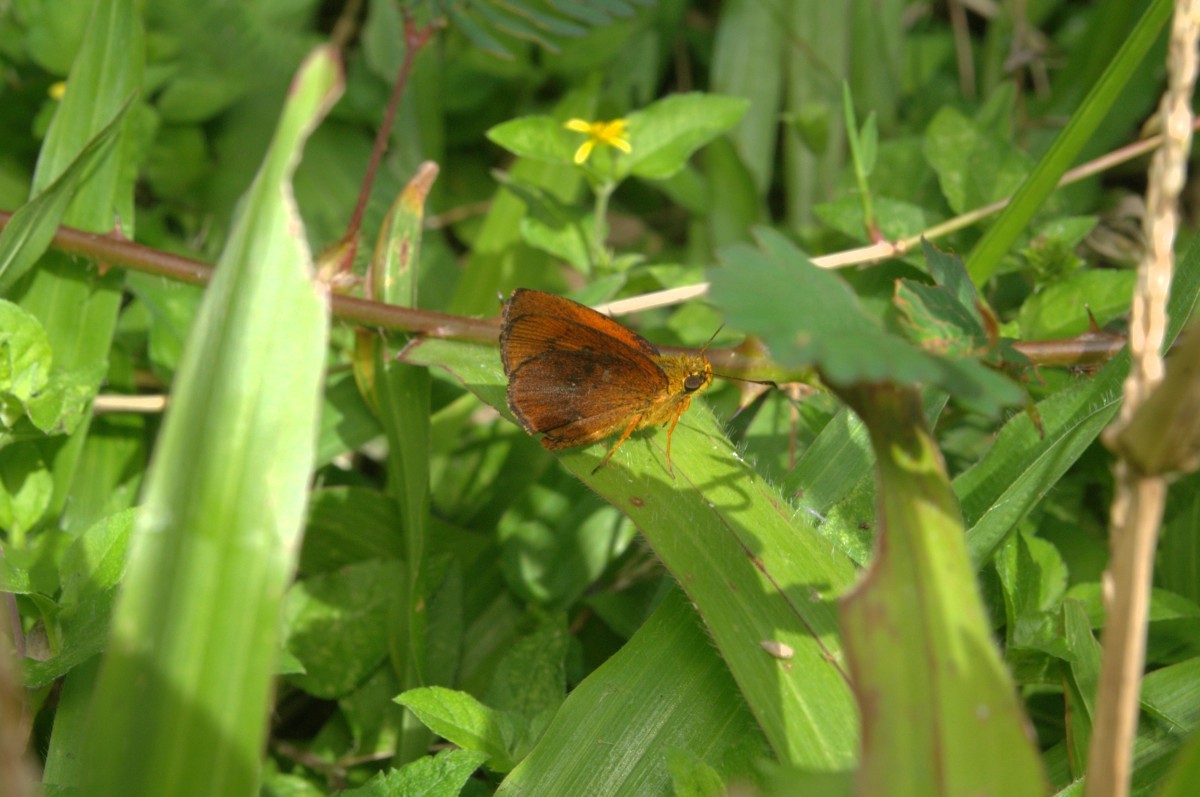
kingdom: Animalia
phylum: Arthropoda
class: Insecta
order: Lepidoptera
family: Hesperiidae
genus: Iambrix
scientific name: Iambrix salsala
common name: Chestnut bob
